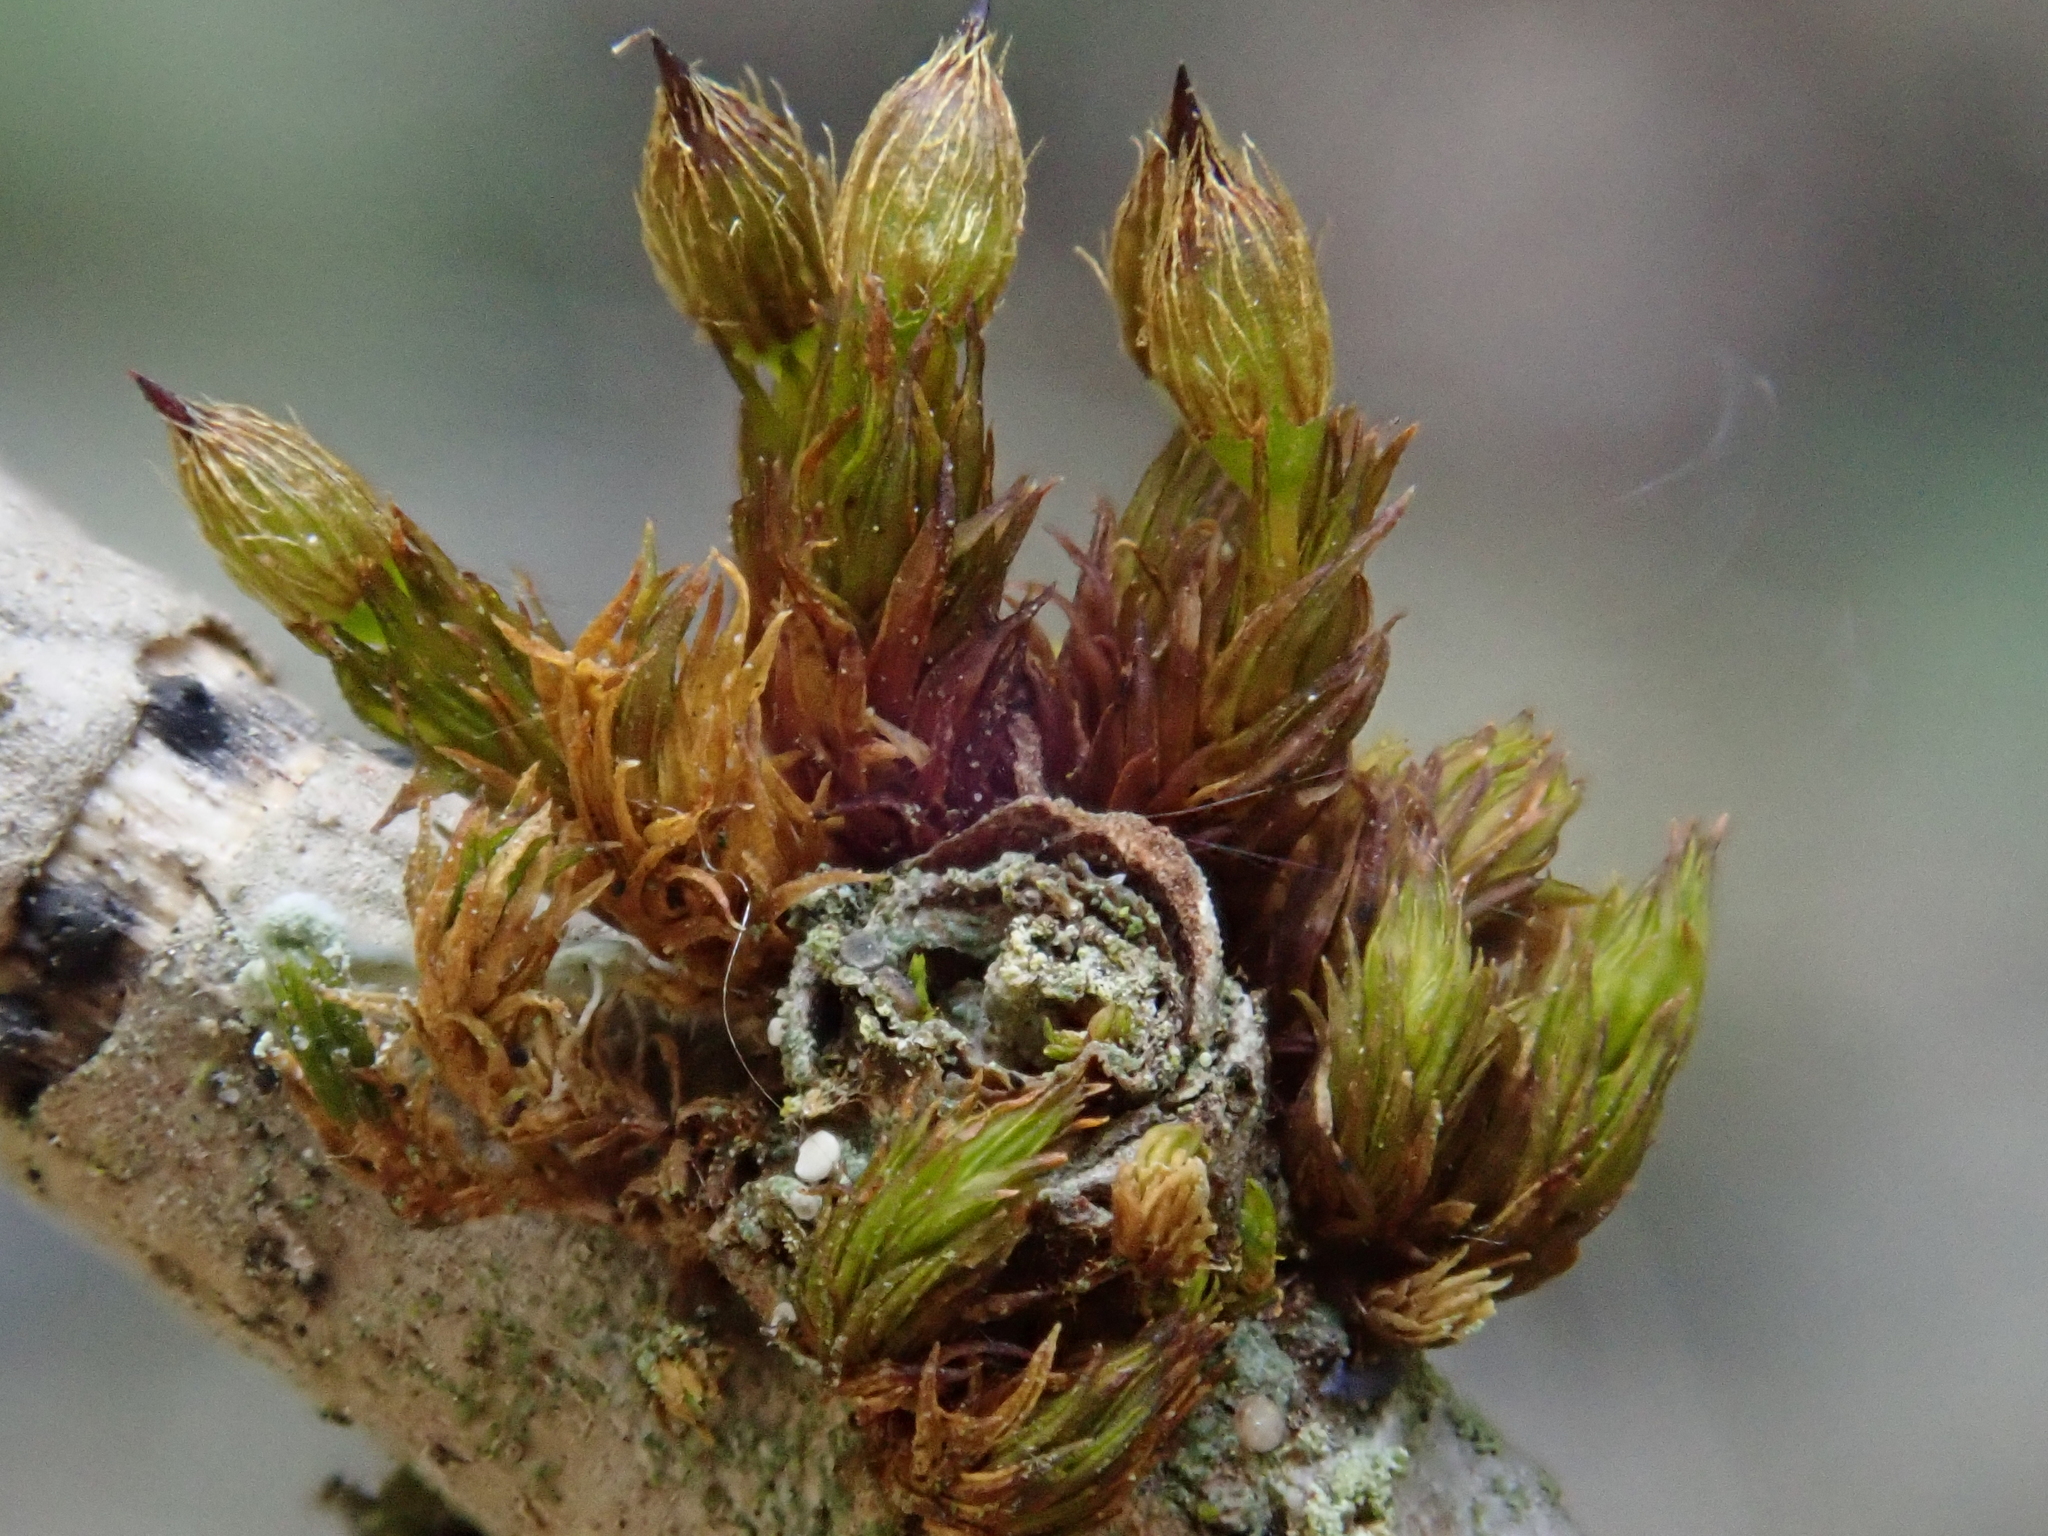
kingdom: Plantae
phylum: Bryophyta
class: Bryopsida
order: Orthotrichales
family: Orthotrichaceae
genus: Orthotrichum
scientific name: Orthotrichum patens
